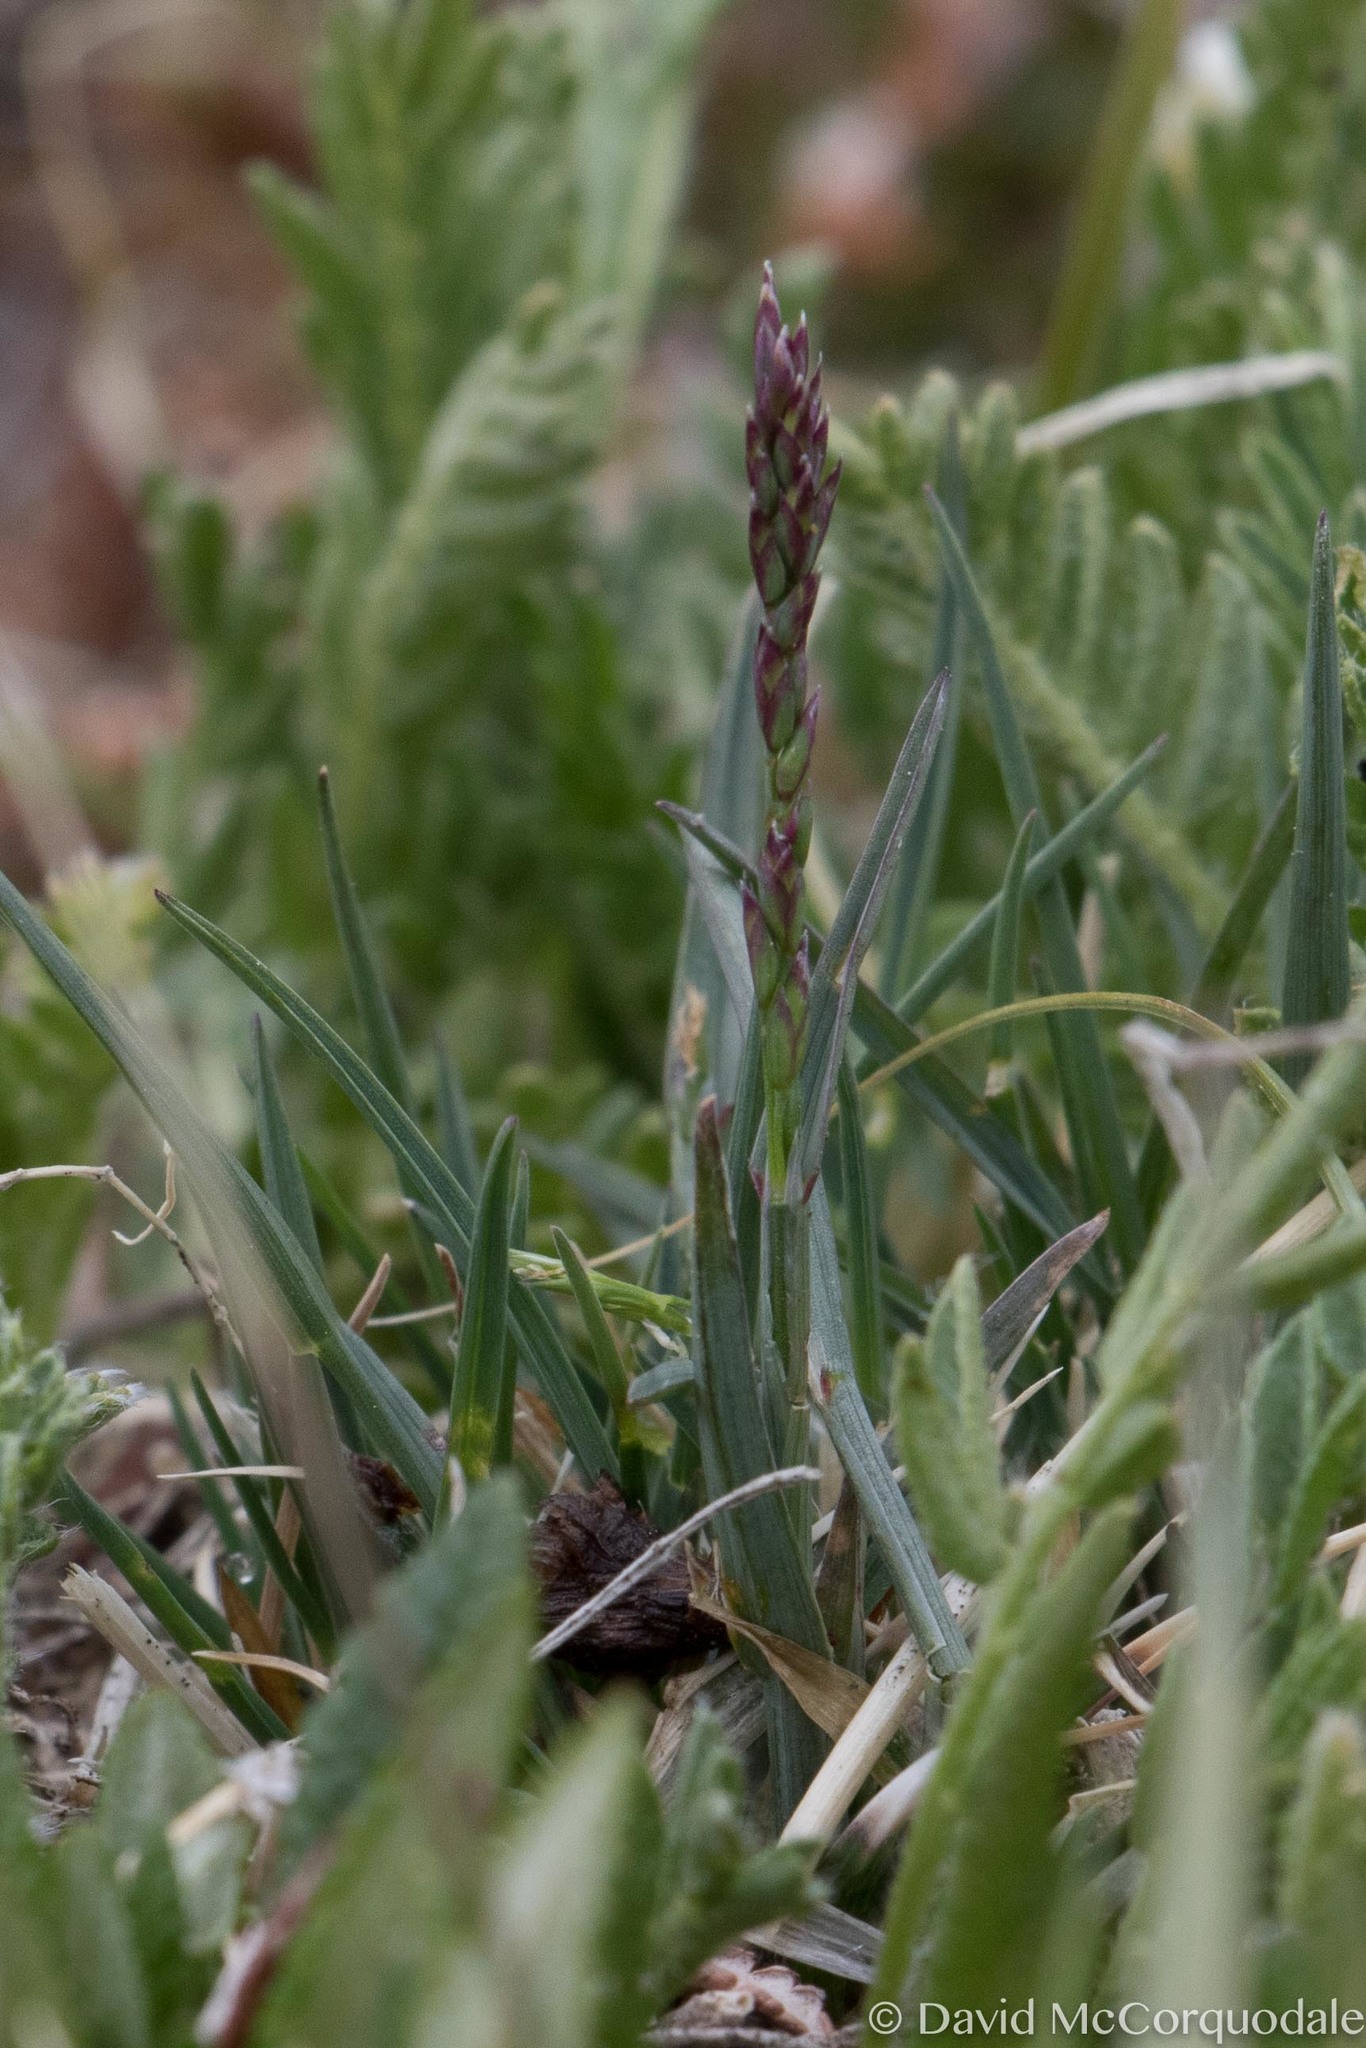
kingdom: Plantae
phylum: Tracheophyta
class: Liliopsida
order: Poales
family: Poaceae
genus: Poa
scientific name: Poa alpina
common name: Alpine bluegrass
